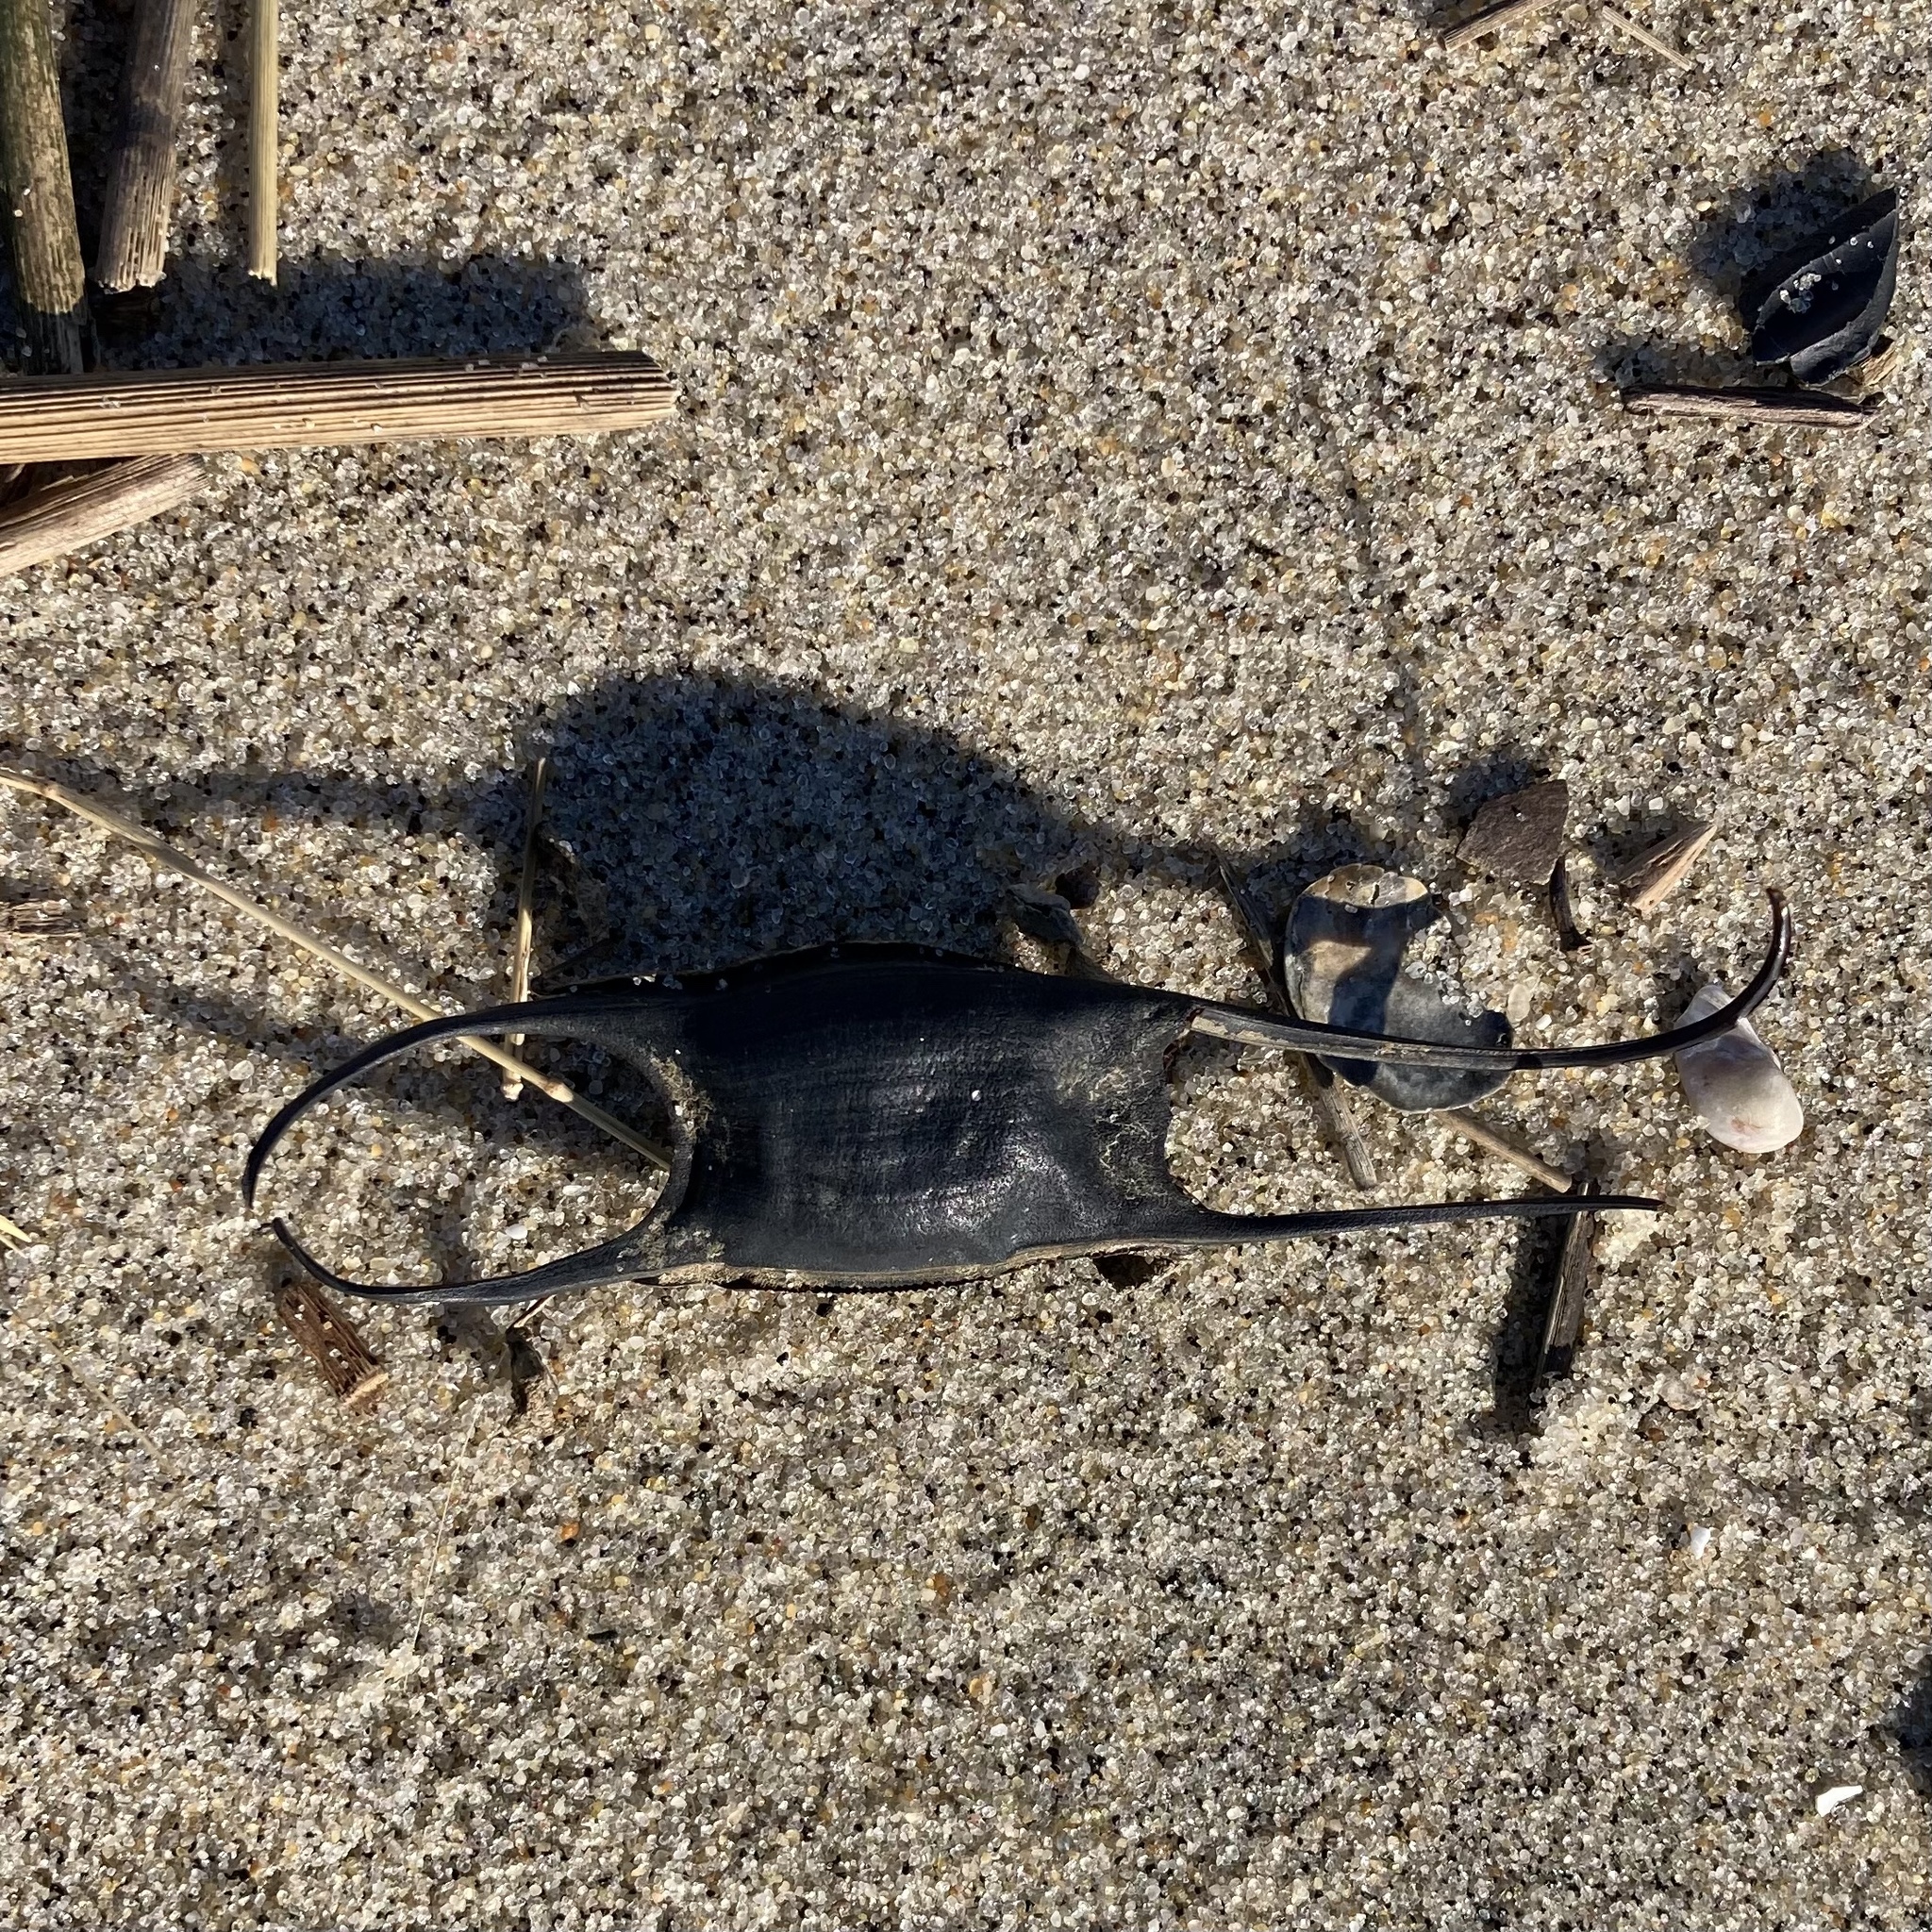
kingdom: Animalia
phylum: Chordata
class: Elasmobranchii
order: Rajiformes
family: Rajidae
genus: Leucoraja
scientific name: Leucoraja garmani
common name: Rosette skate
